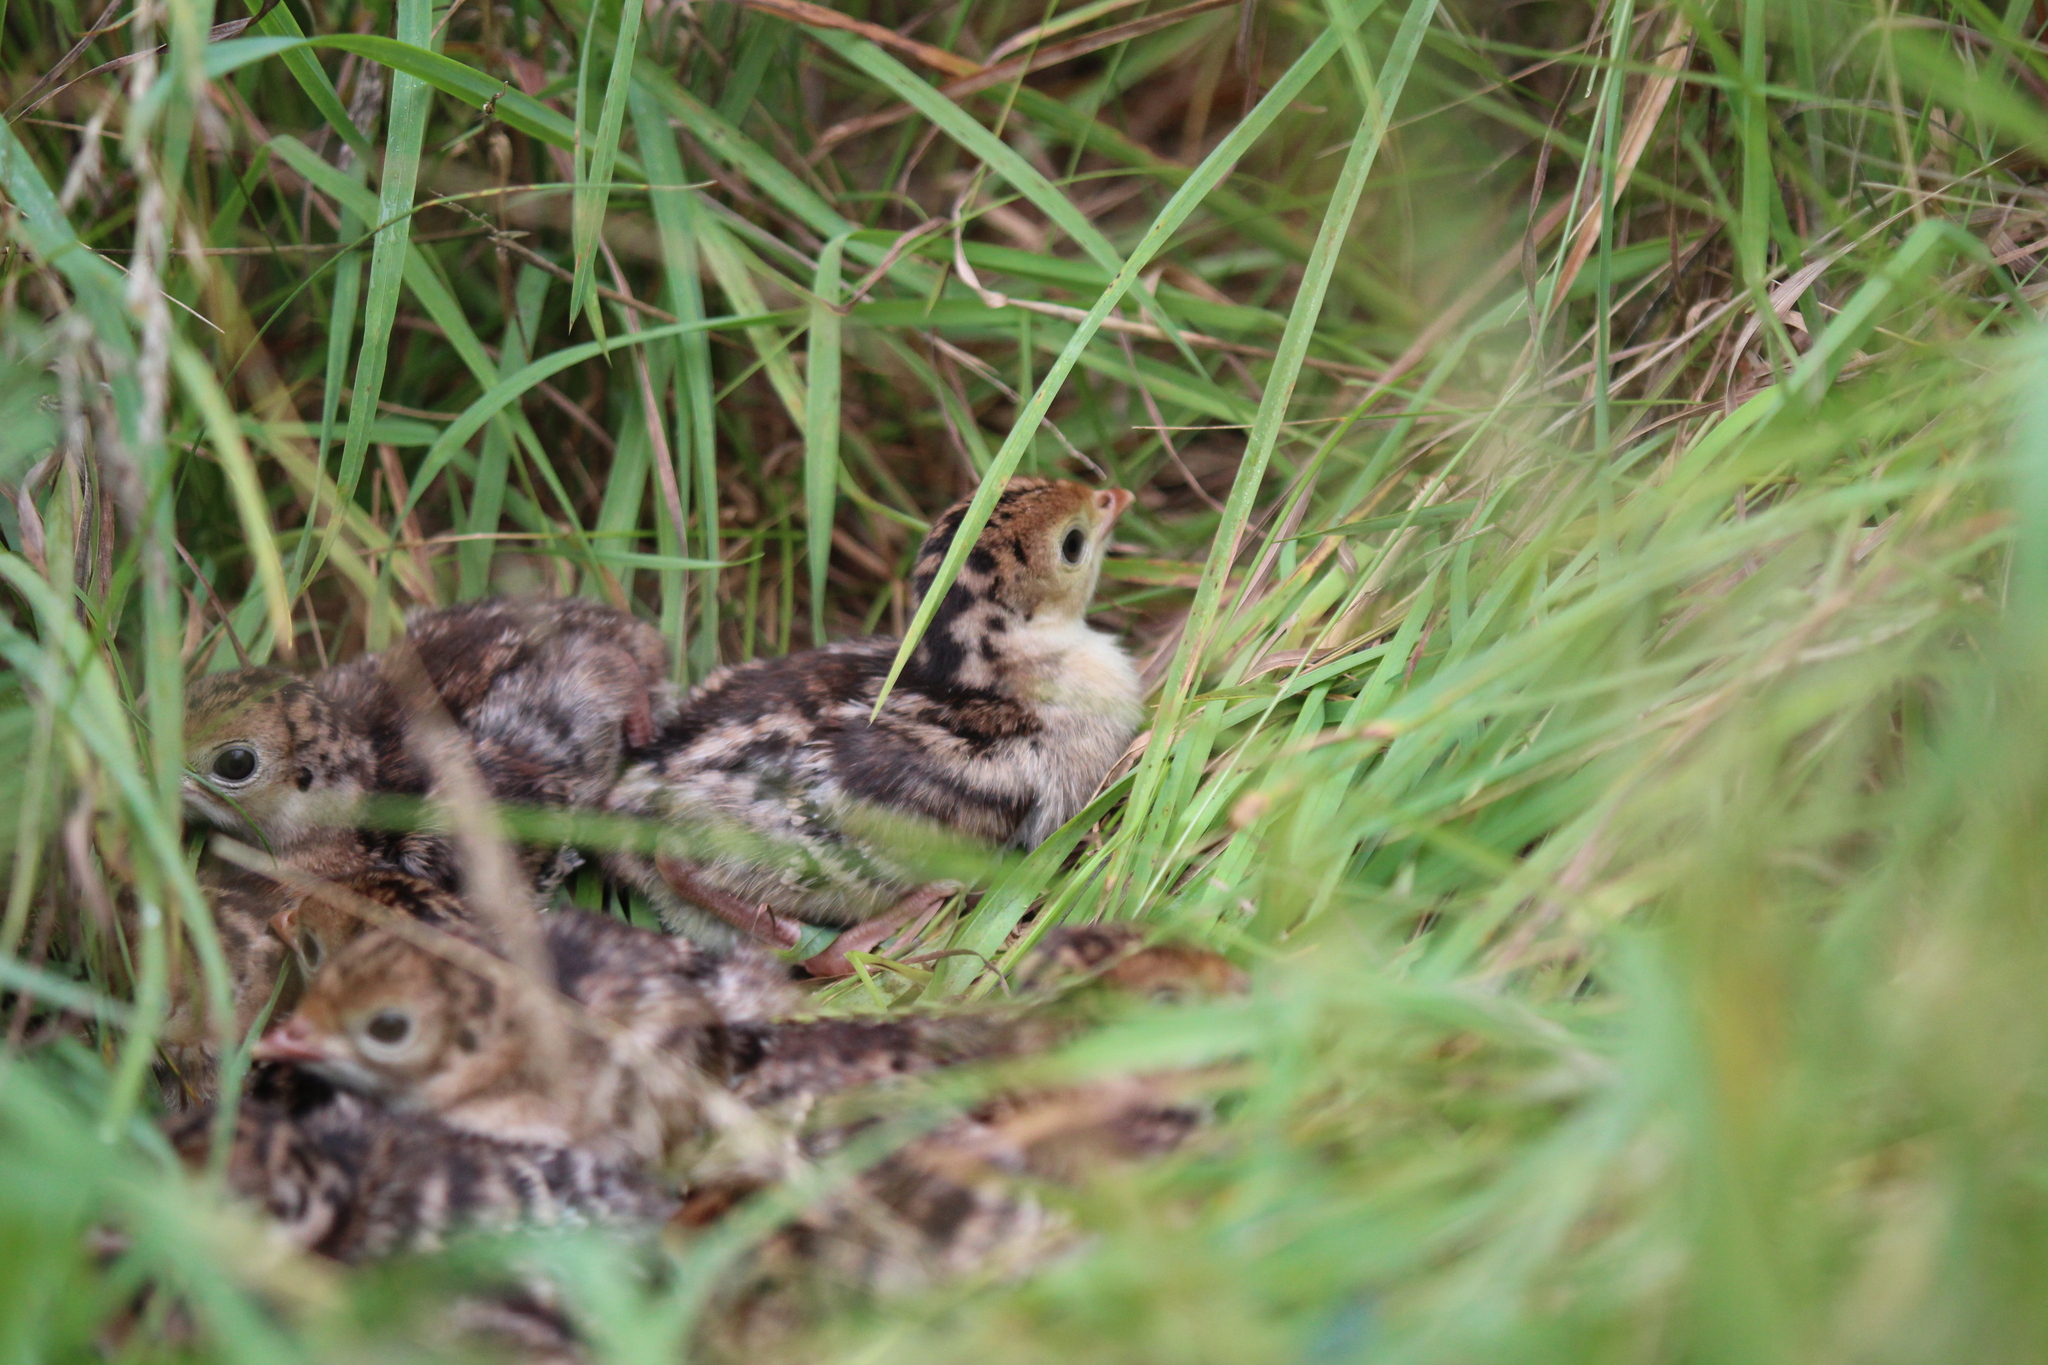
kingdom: Animalia
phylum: Chordata
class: Aves
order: Galliformes
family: Phasianidae
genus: Meleagris
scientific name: Meleagris gallopavo
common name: Wild turkey
